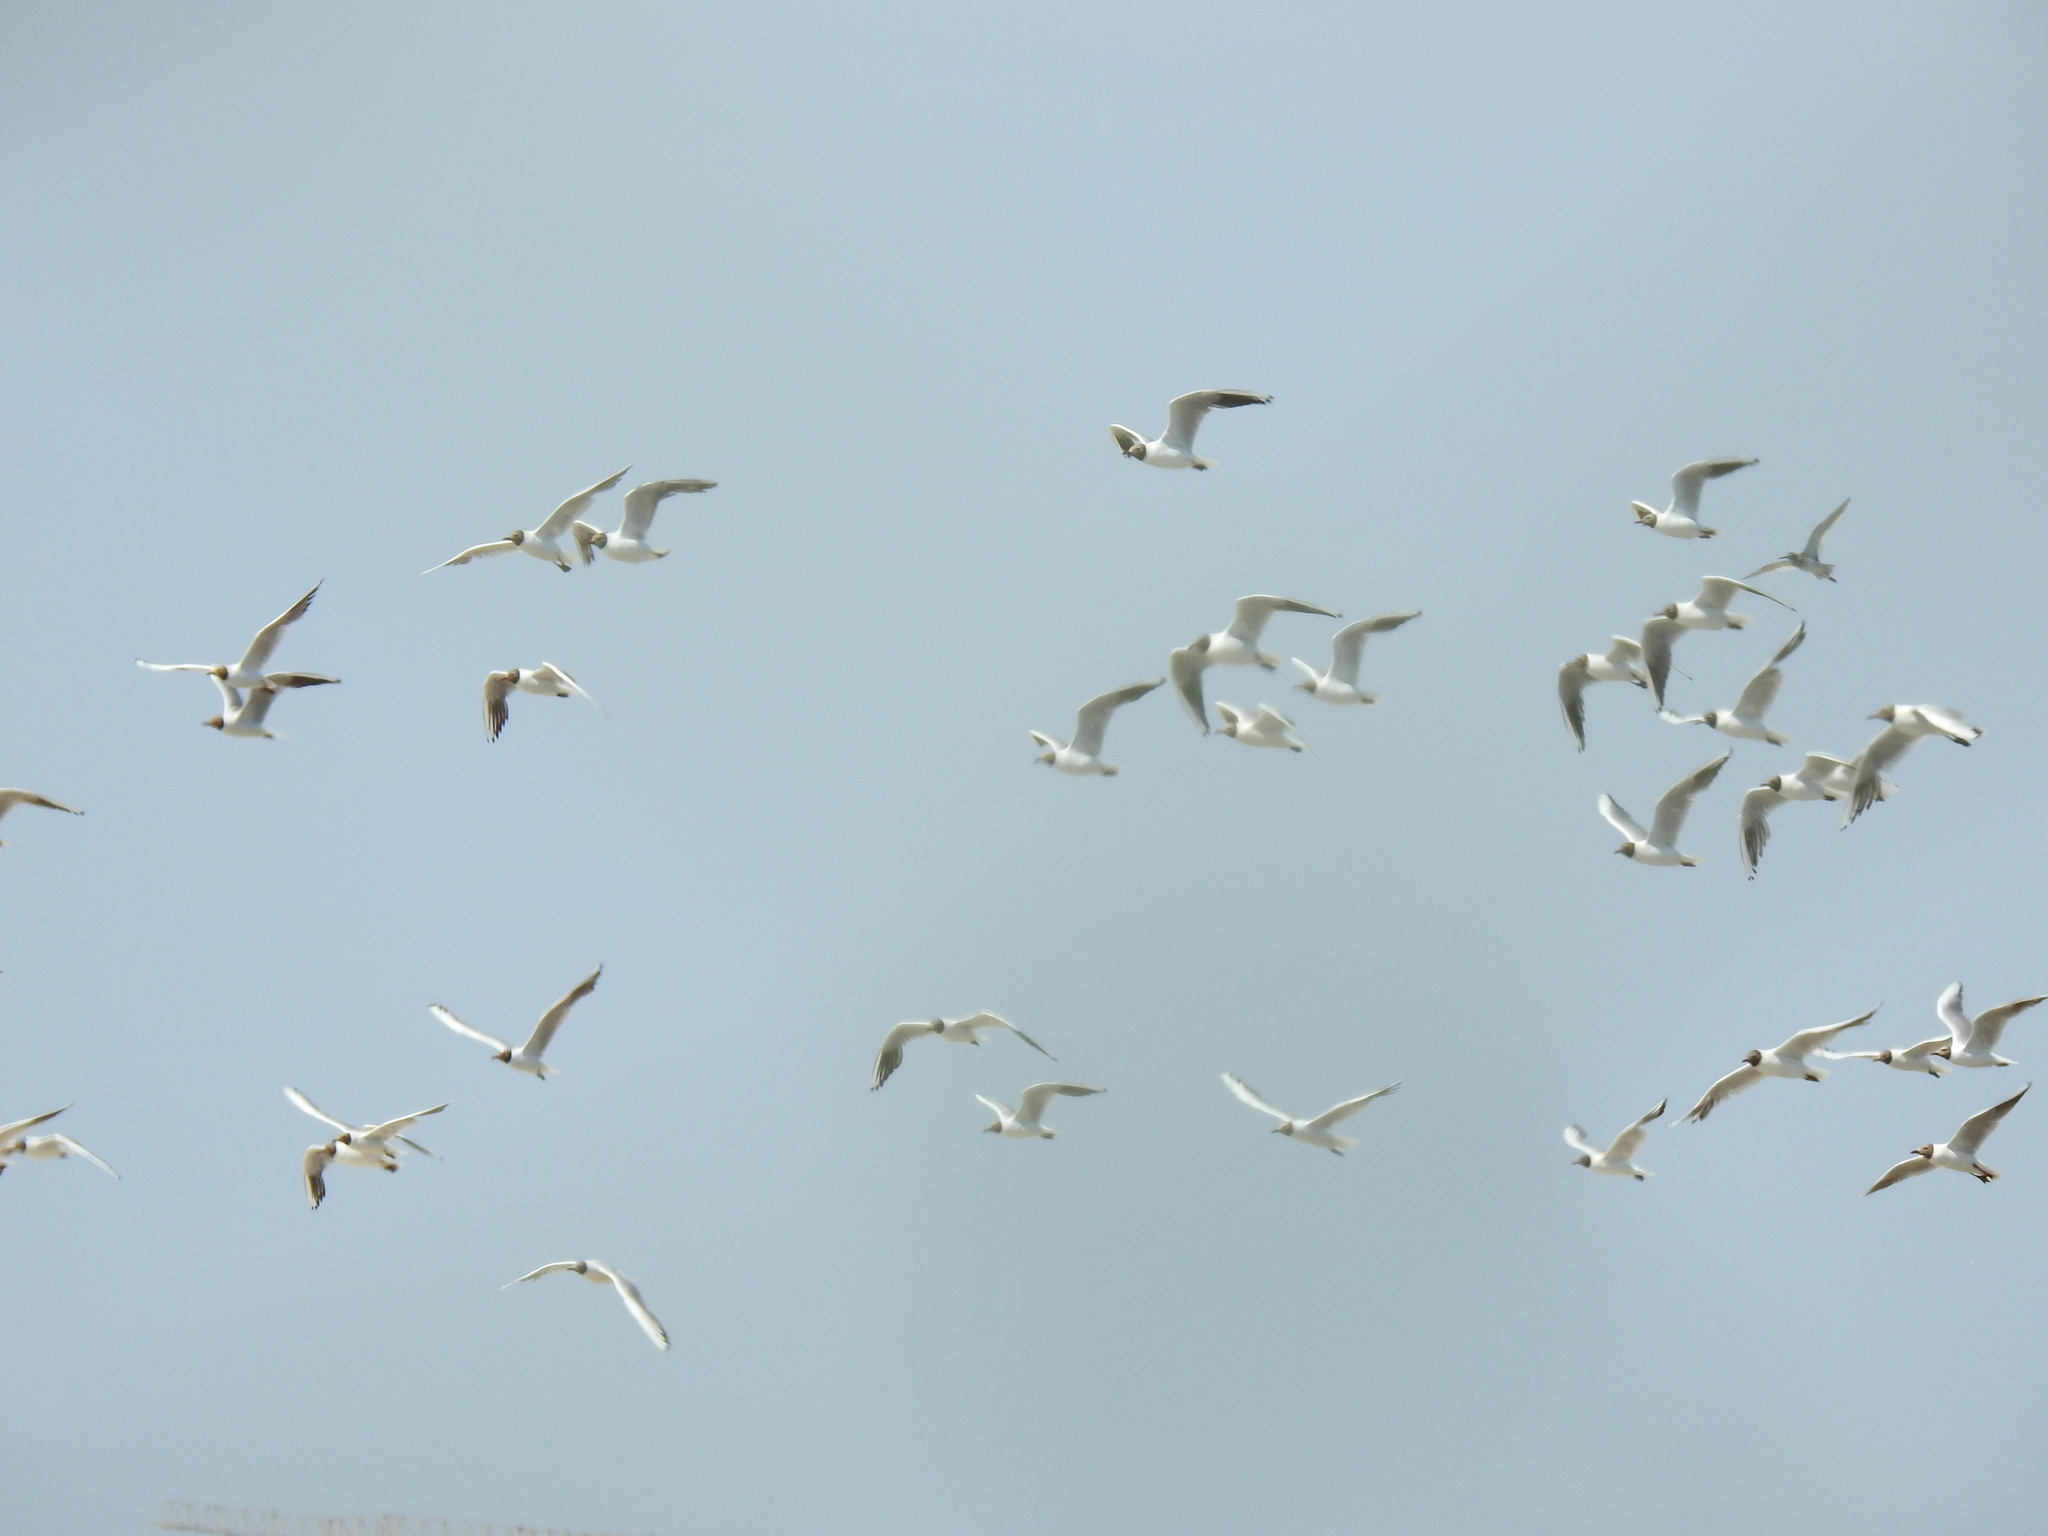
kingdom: Animalia
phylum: Chordata
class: Aves
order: Charadriiformes
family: Laridae
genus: Chroicocephalus
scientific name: Chroicocephalus ridibundus
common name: Black-headed gull
